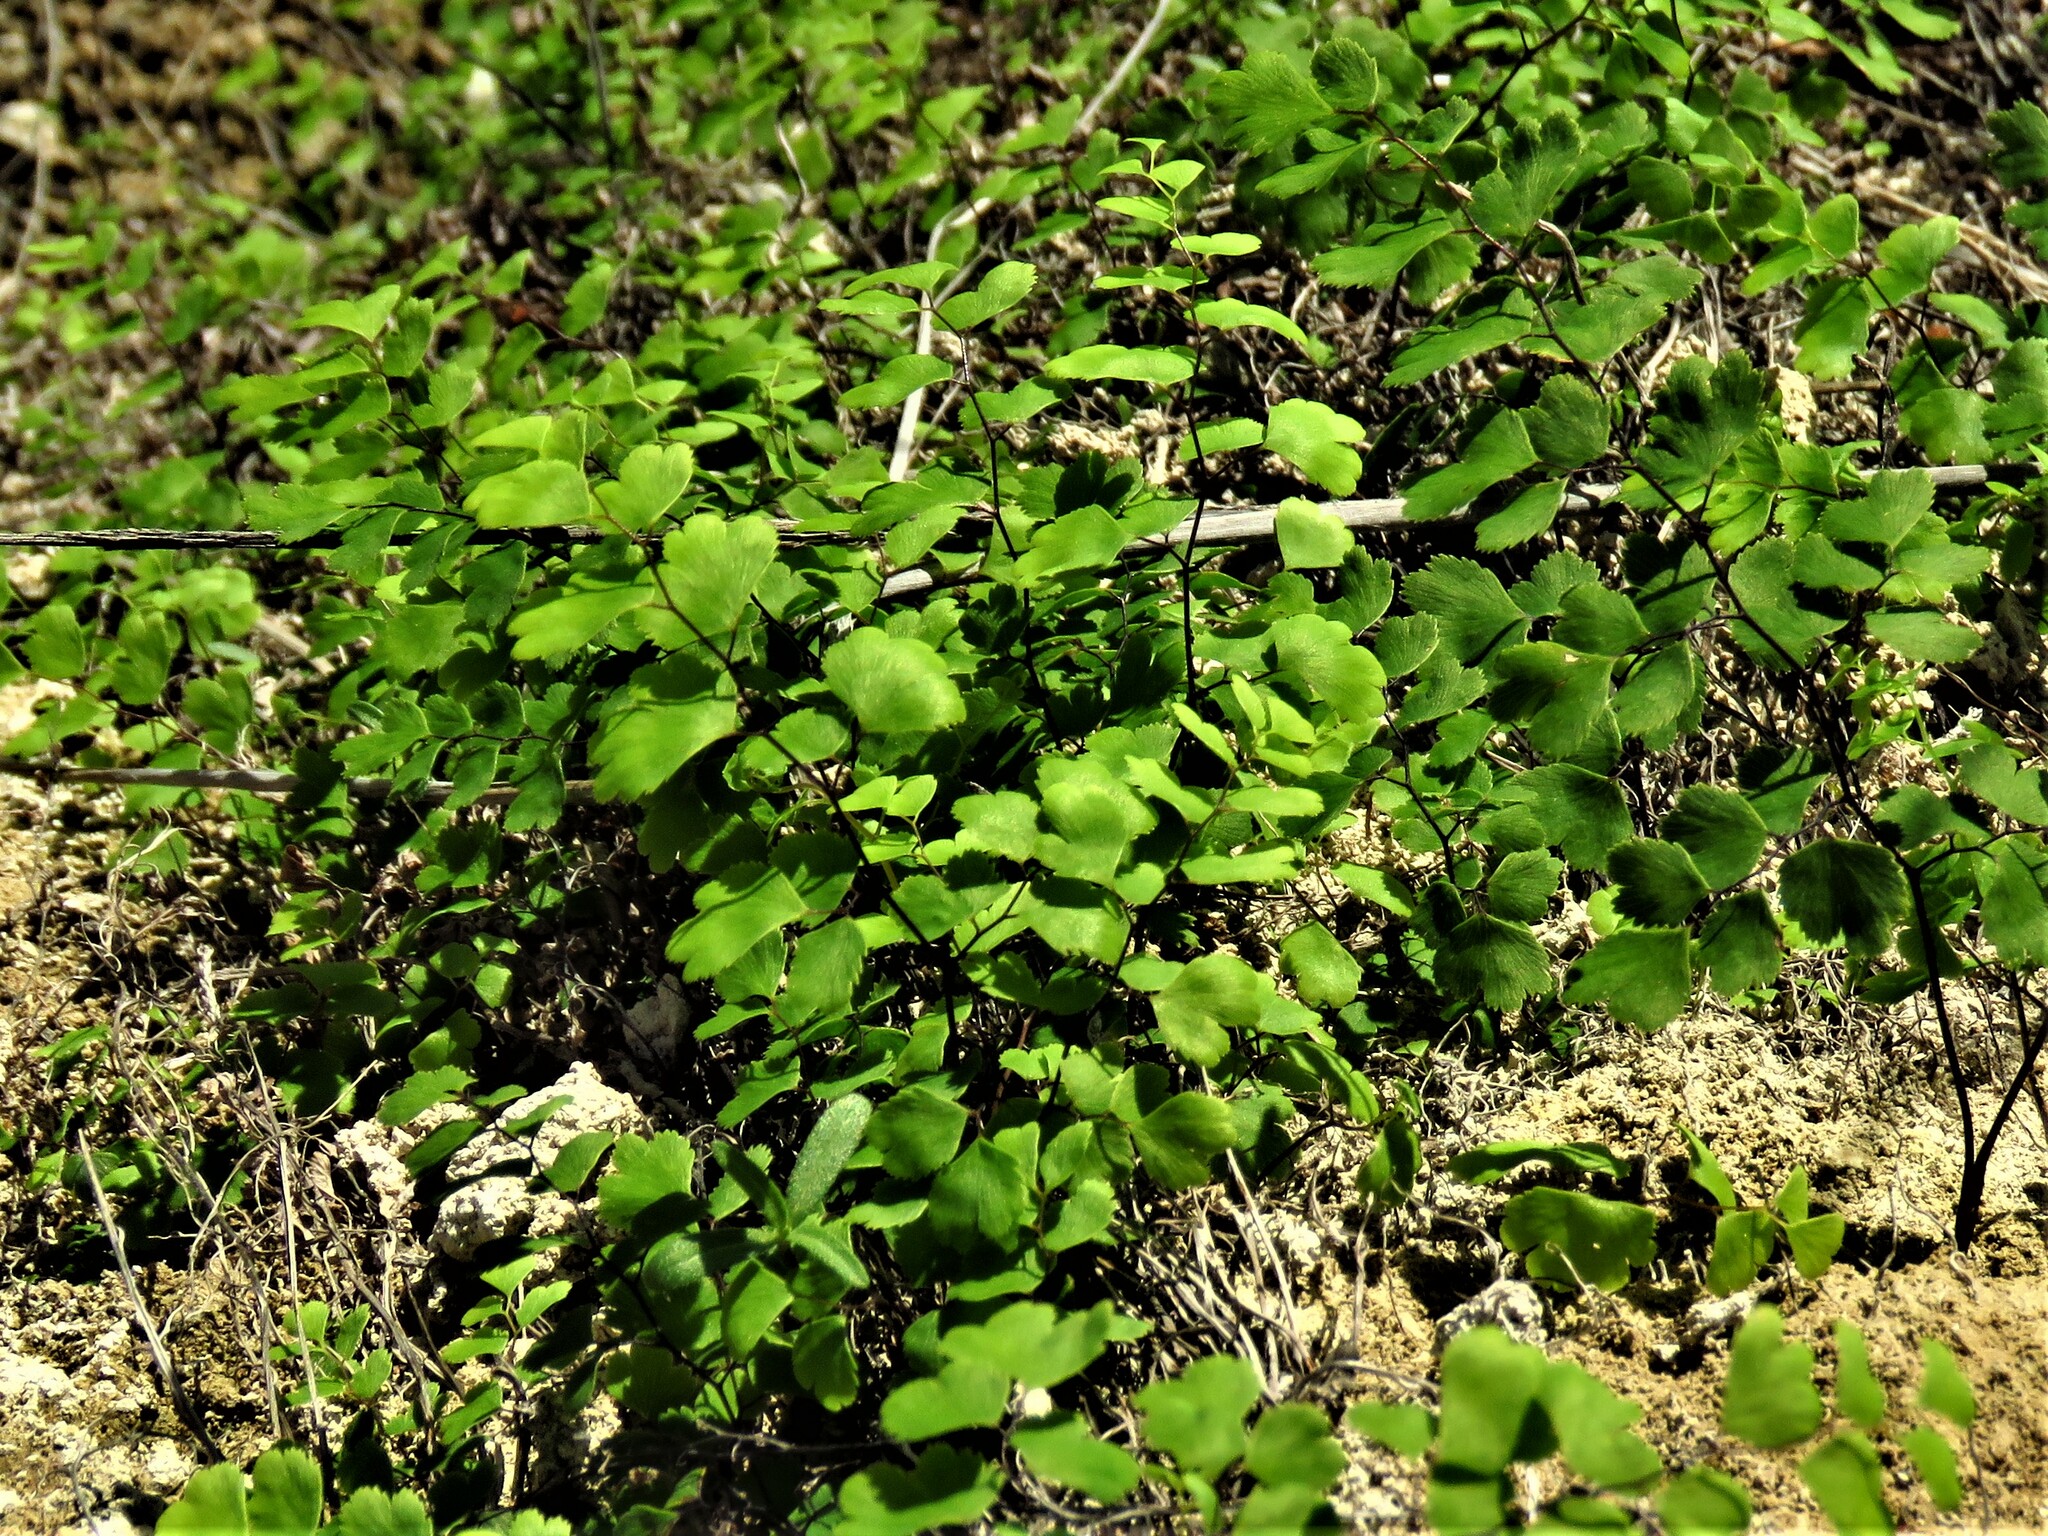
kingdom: Plantae
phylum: Tracheophyta
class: Polypodiopsida
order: Polypodiales
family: Pteridaceae
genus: Adiantum
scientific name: Adiantum capillus-veneris
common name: Maidenhair fern
